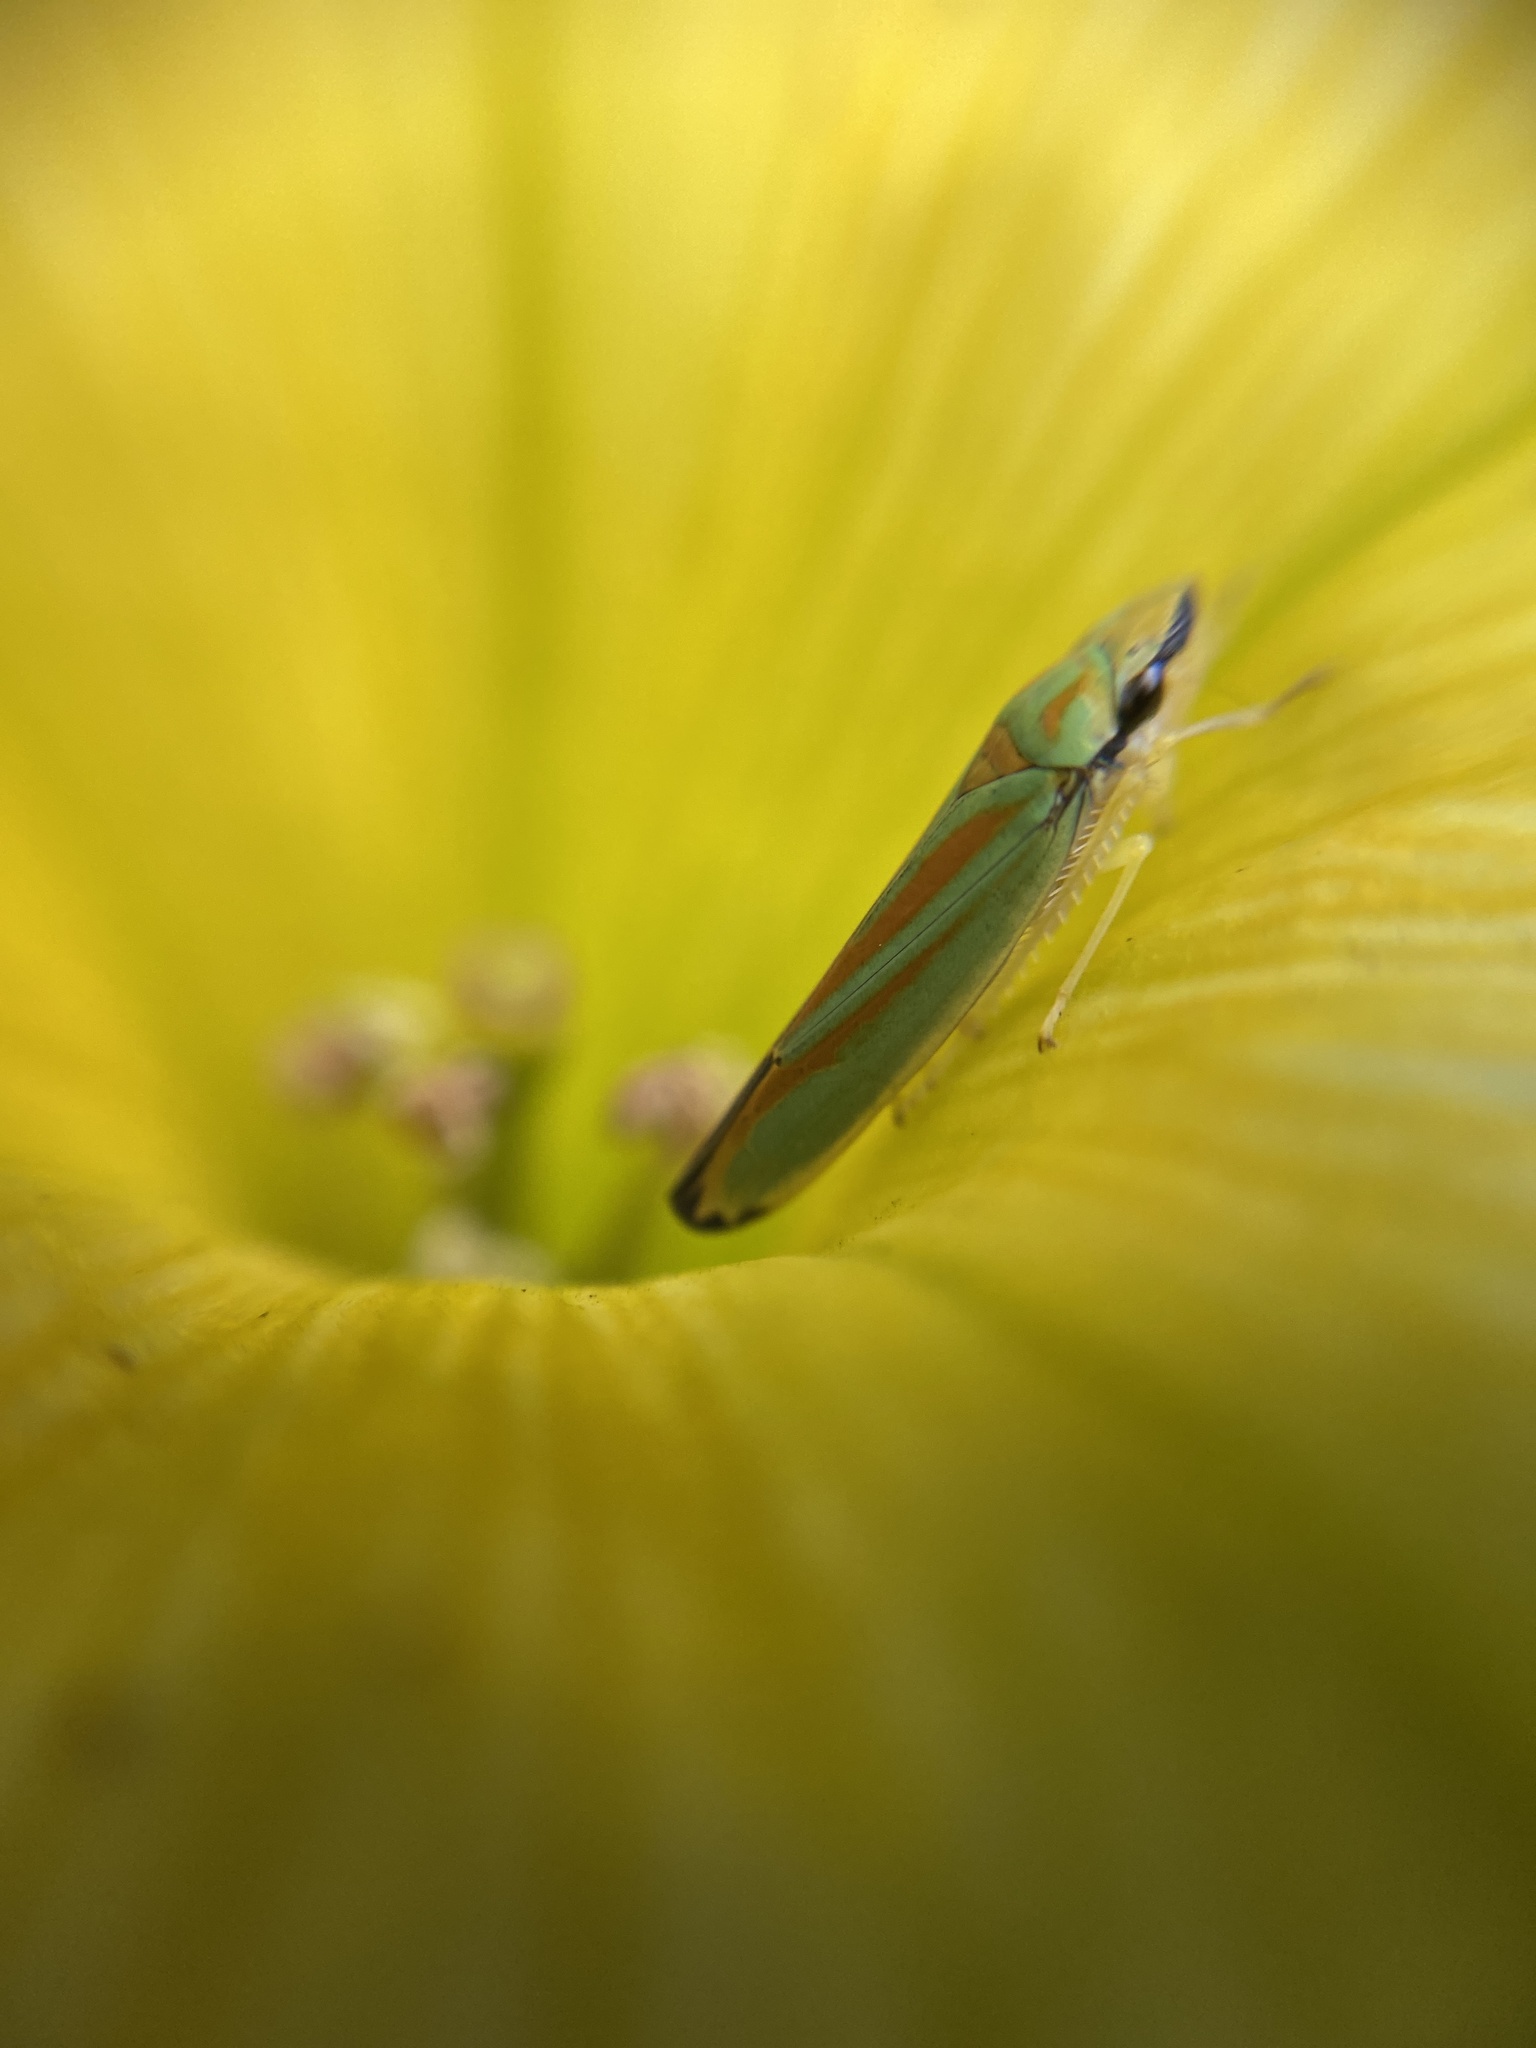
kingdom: Animalia
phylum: Arthropoda
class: Insecta
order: Hemiptera
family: Cicadellidae
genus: Graphocephala
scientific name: Graphocephala fennahi
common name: Rhododendron leafhopper
